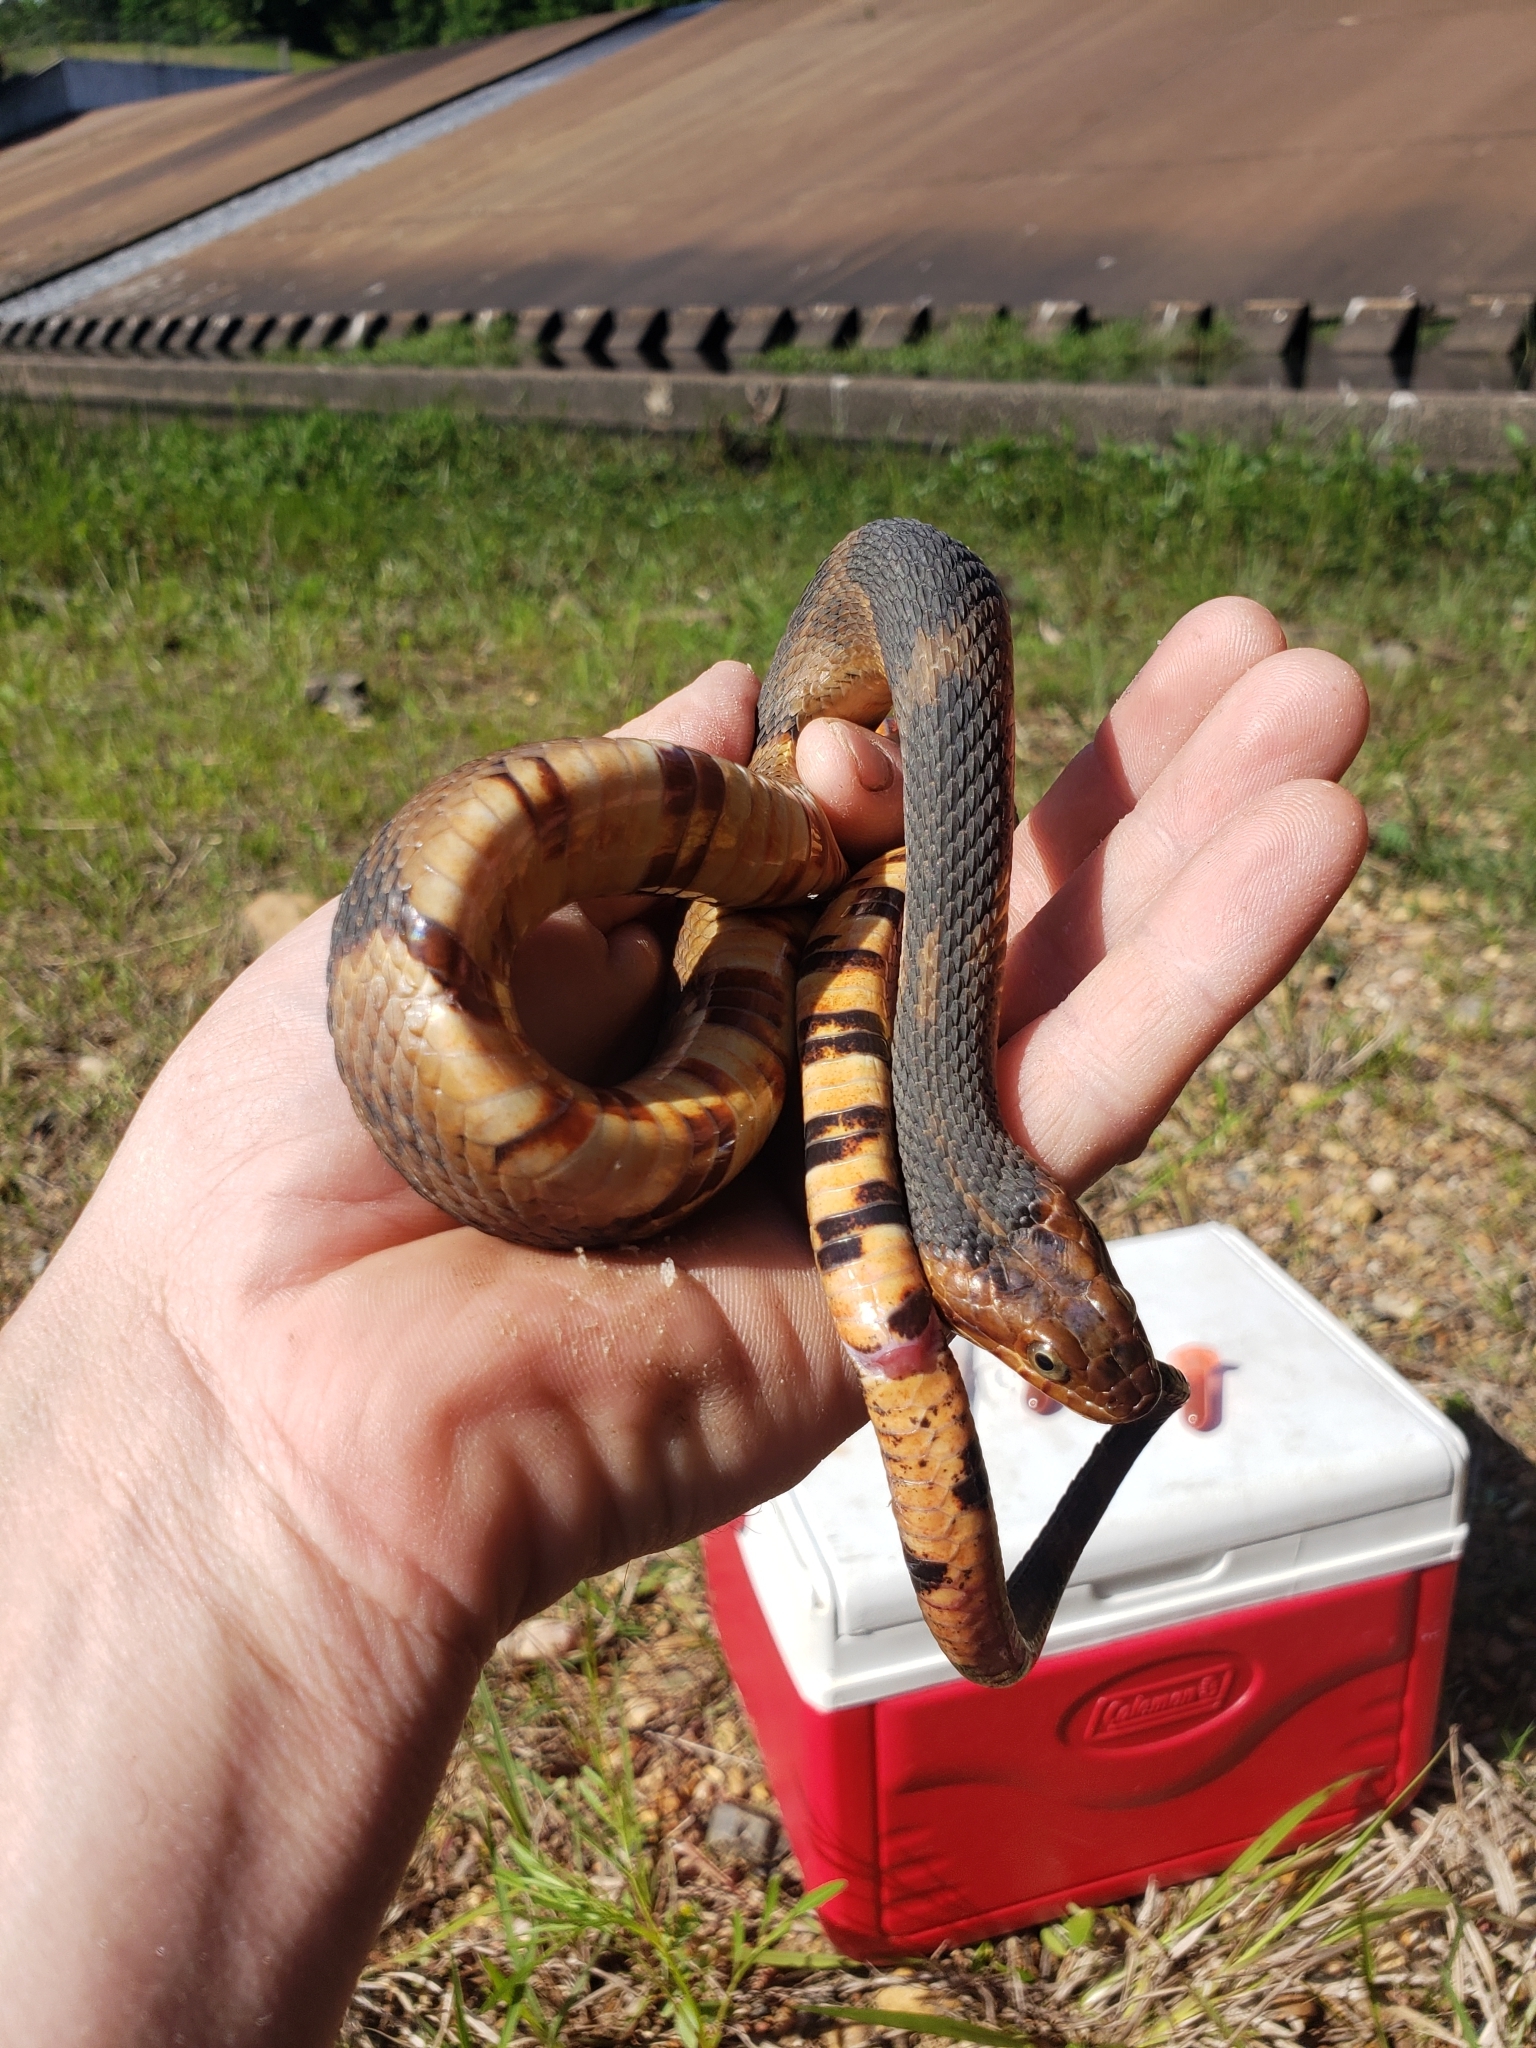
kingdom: Animalia
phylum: Chordata
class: Squamata
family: Colubridae
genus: Nerodia
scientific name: Nerodia fasciata
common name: Southern water snake
